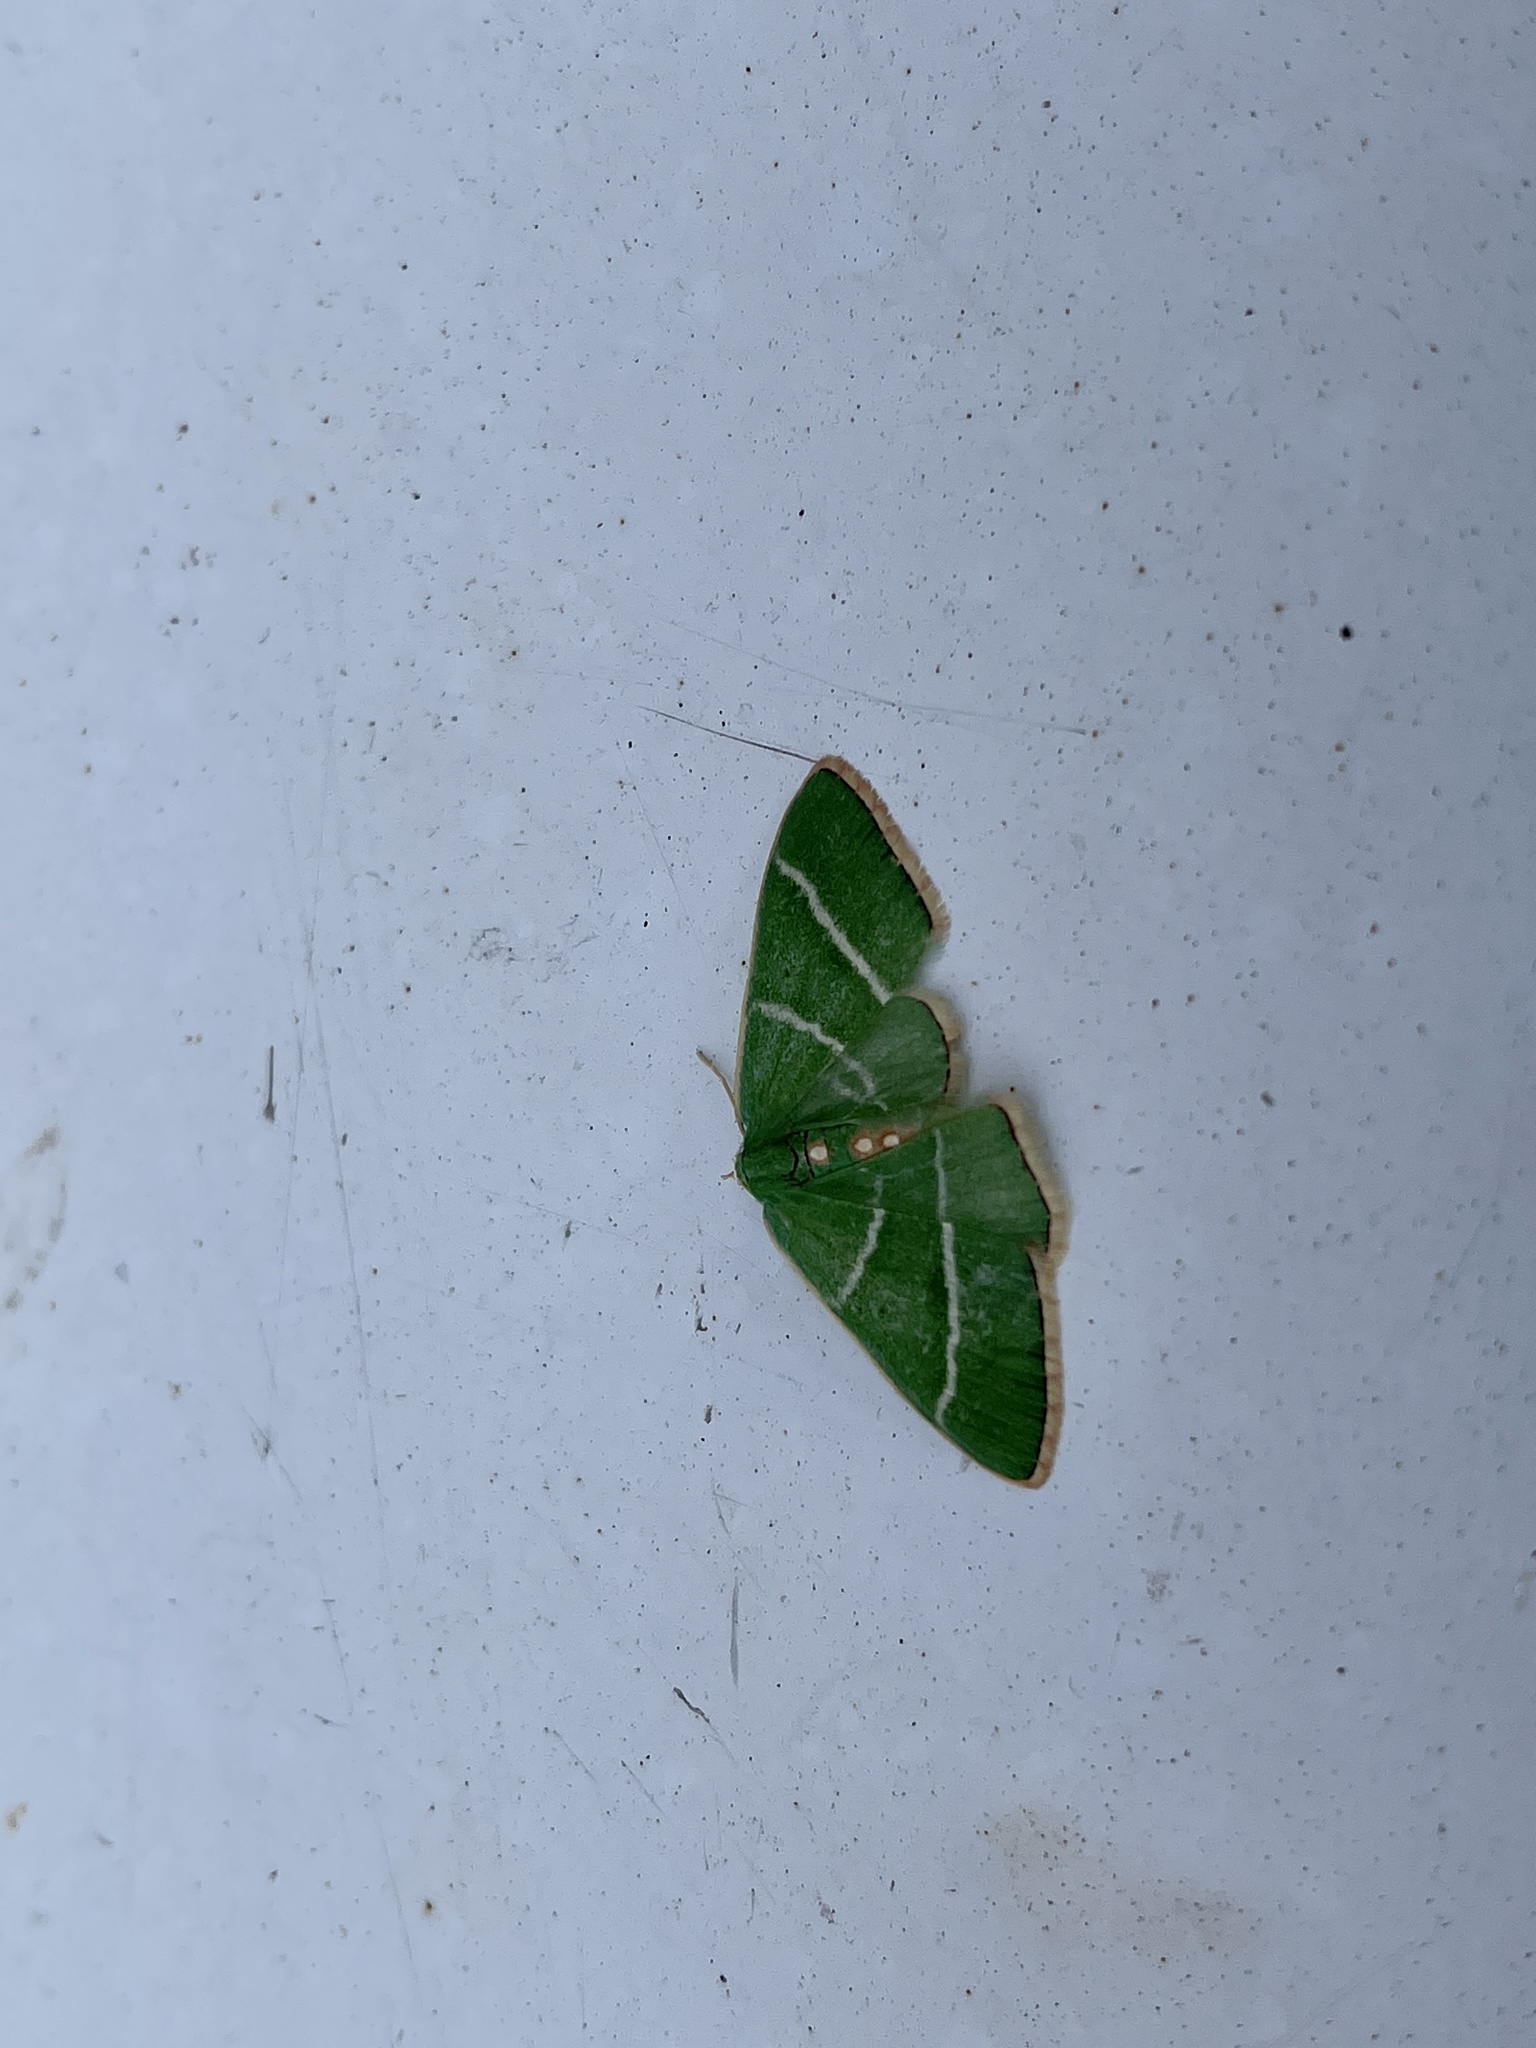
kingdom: Animalia
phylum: Arthropoda
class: Insecta
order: Lepidoptera
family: Geometridae
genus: Nemoria
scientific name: Nemoria obliqua
